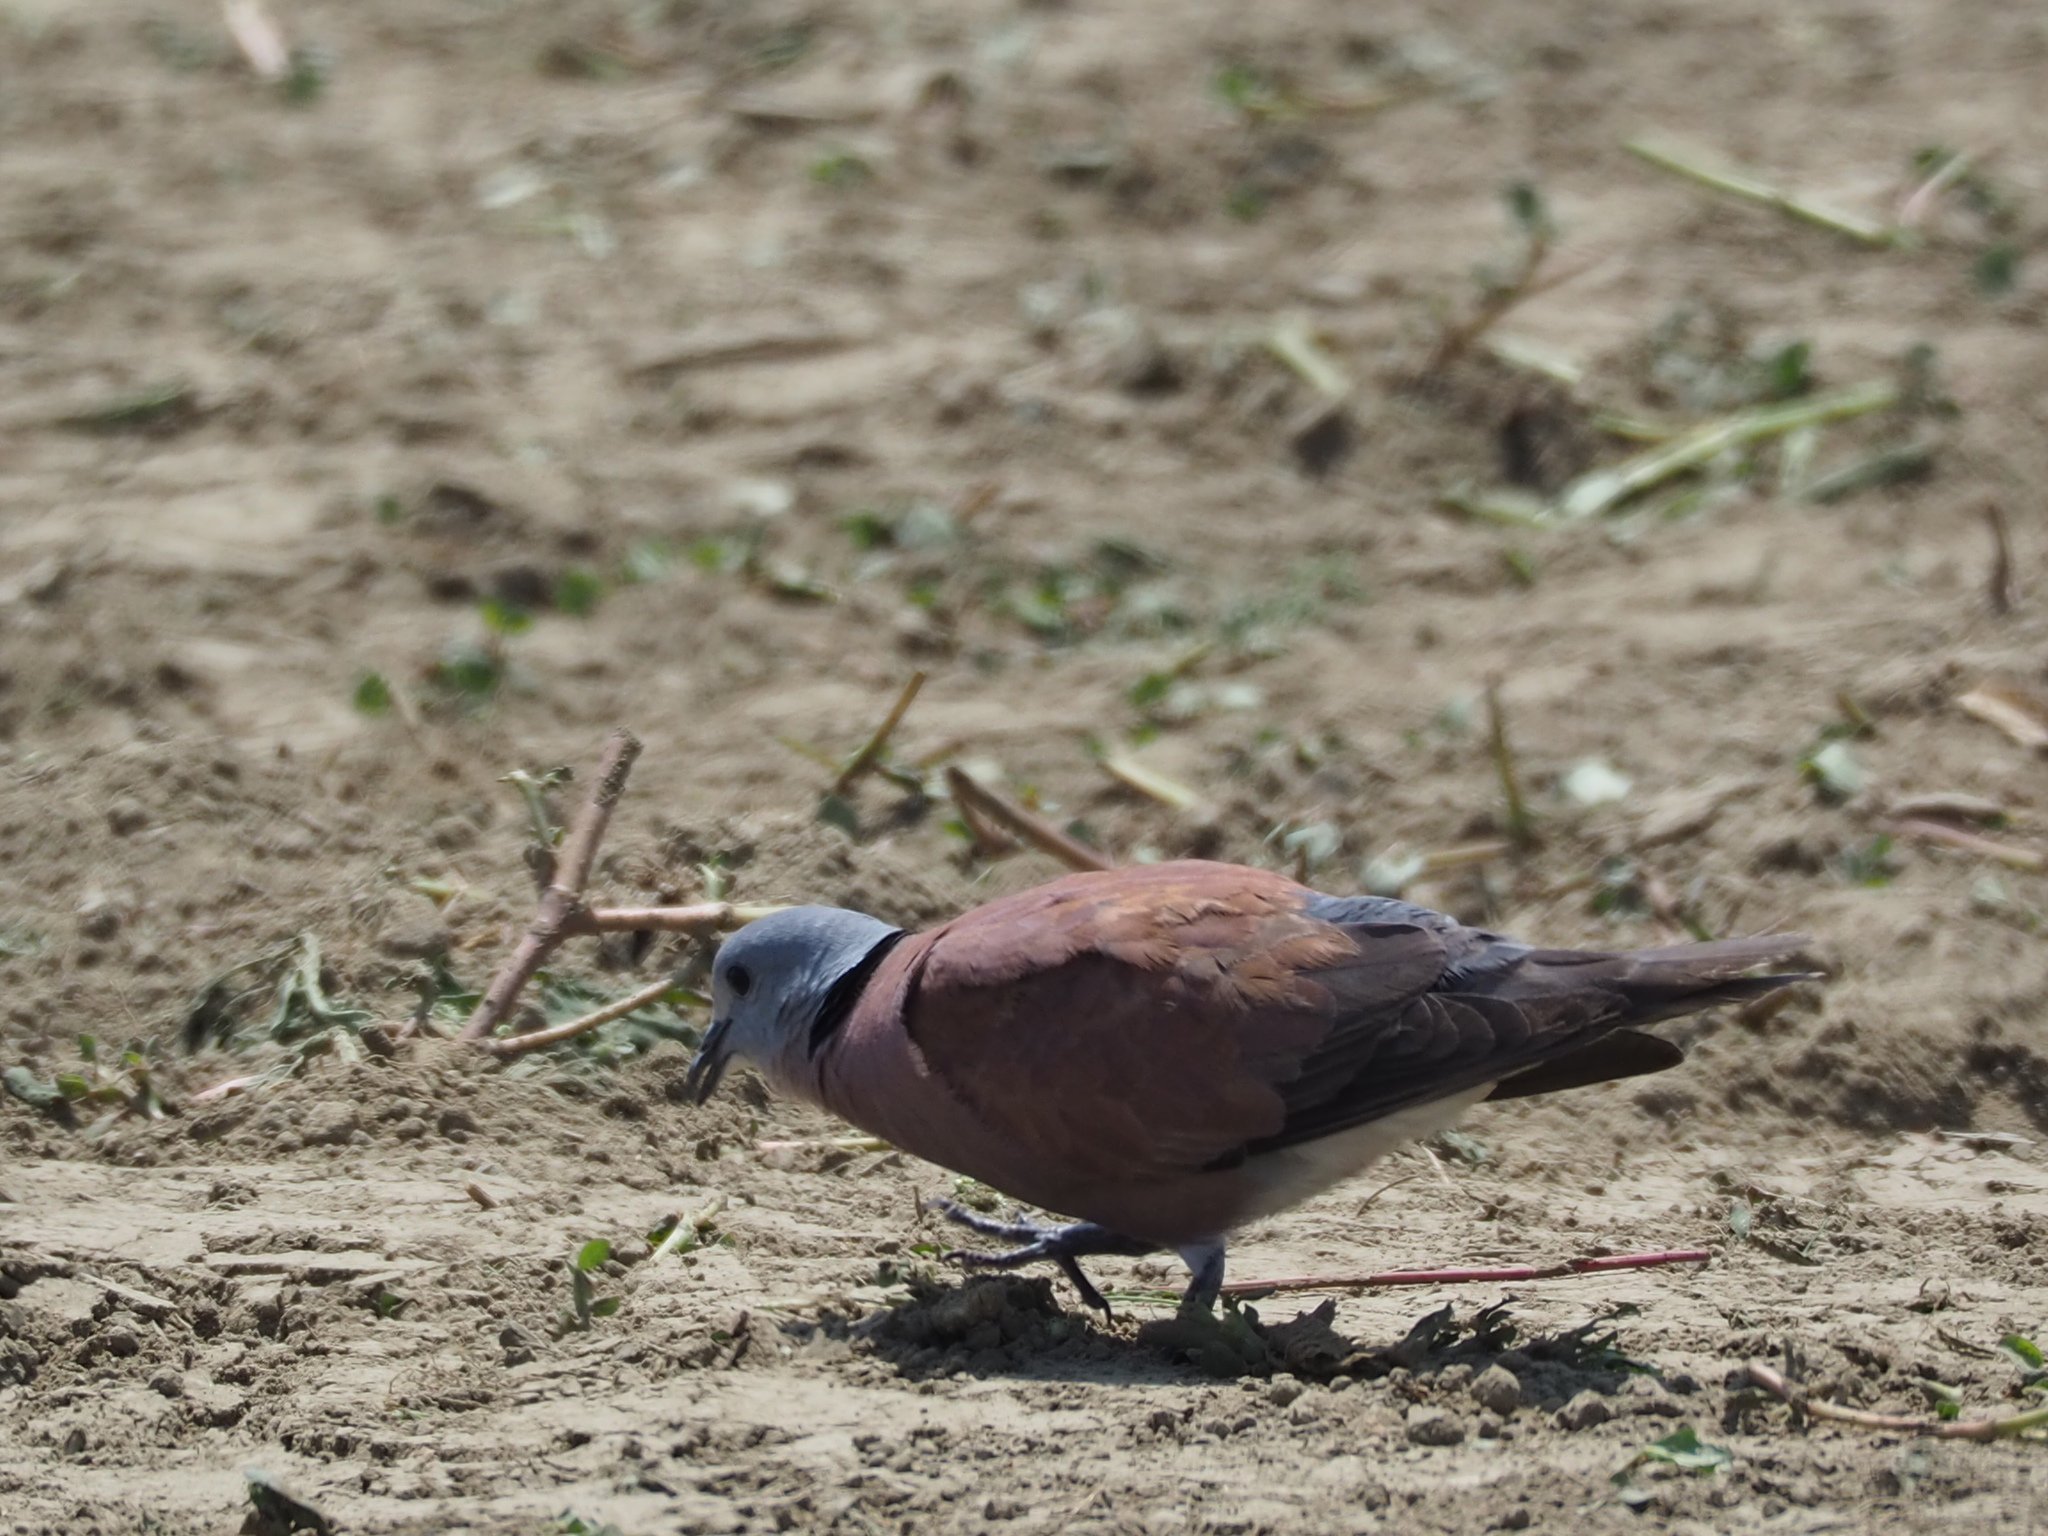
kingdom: Animalia
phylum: Chordata
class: Aves
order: Columbiformes
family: Columbidae
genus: Streptopelia
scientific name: Streptopelia tranquebarica
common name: Red turtle dove
